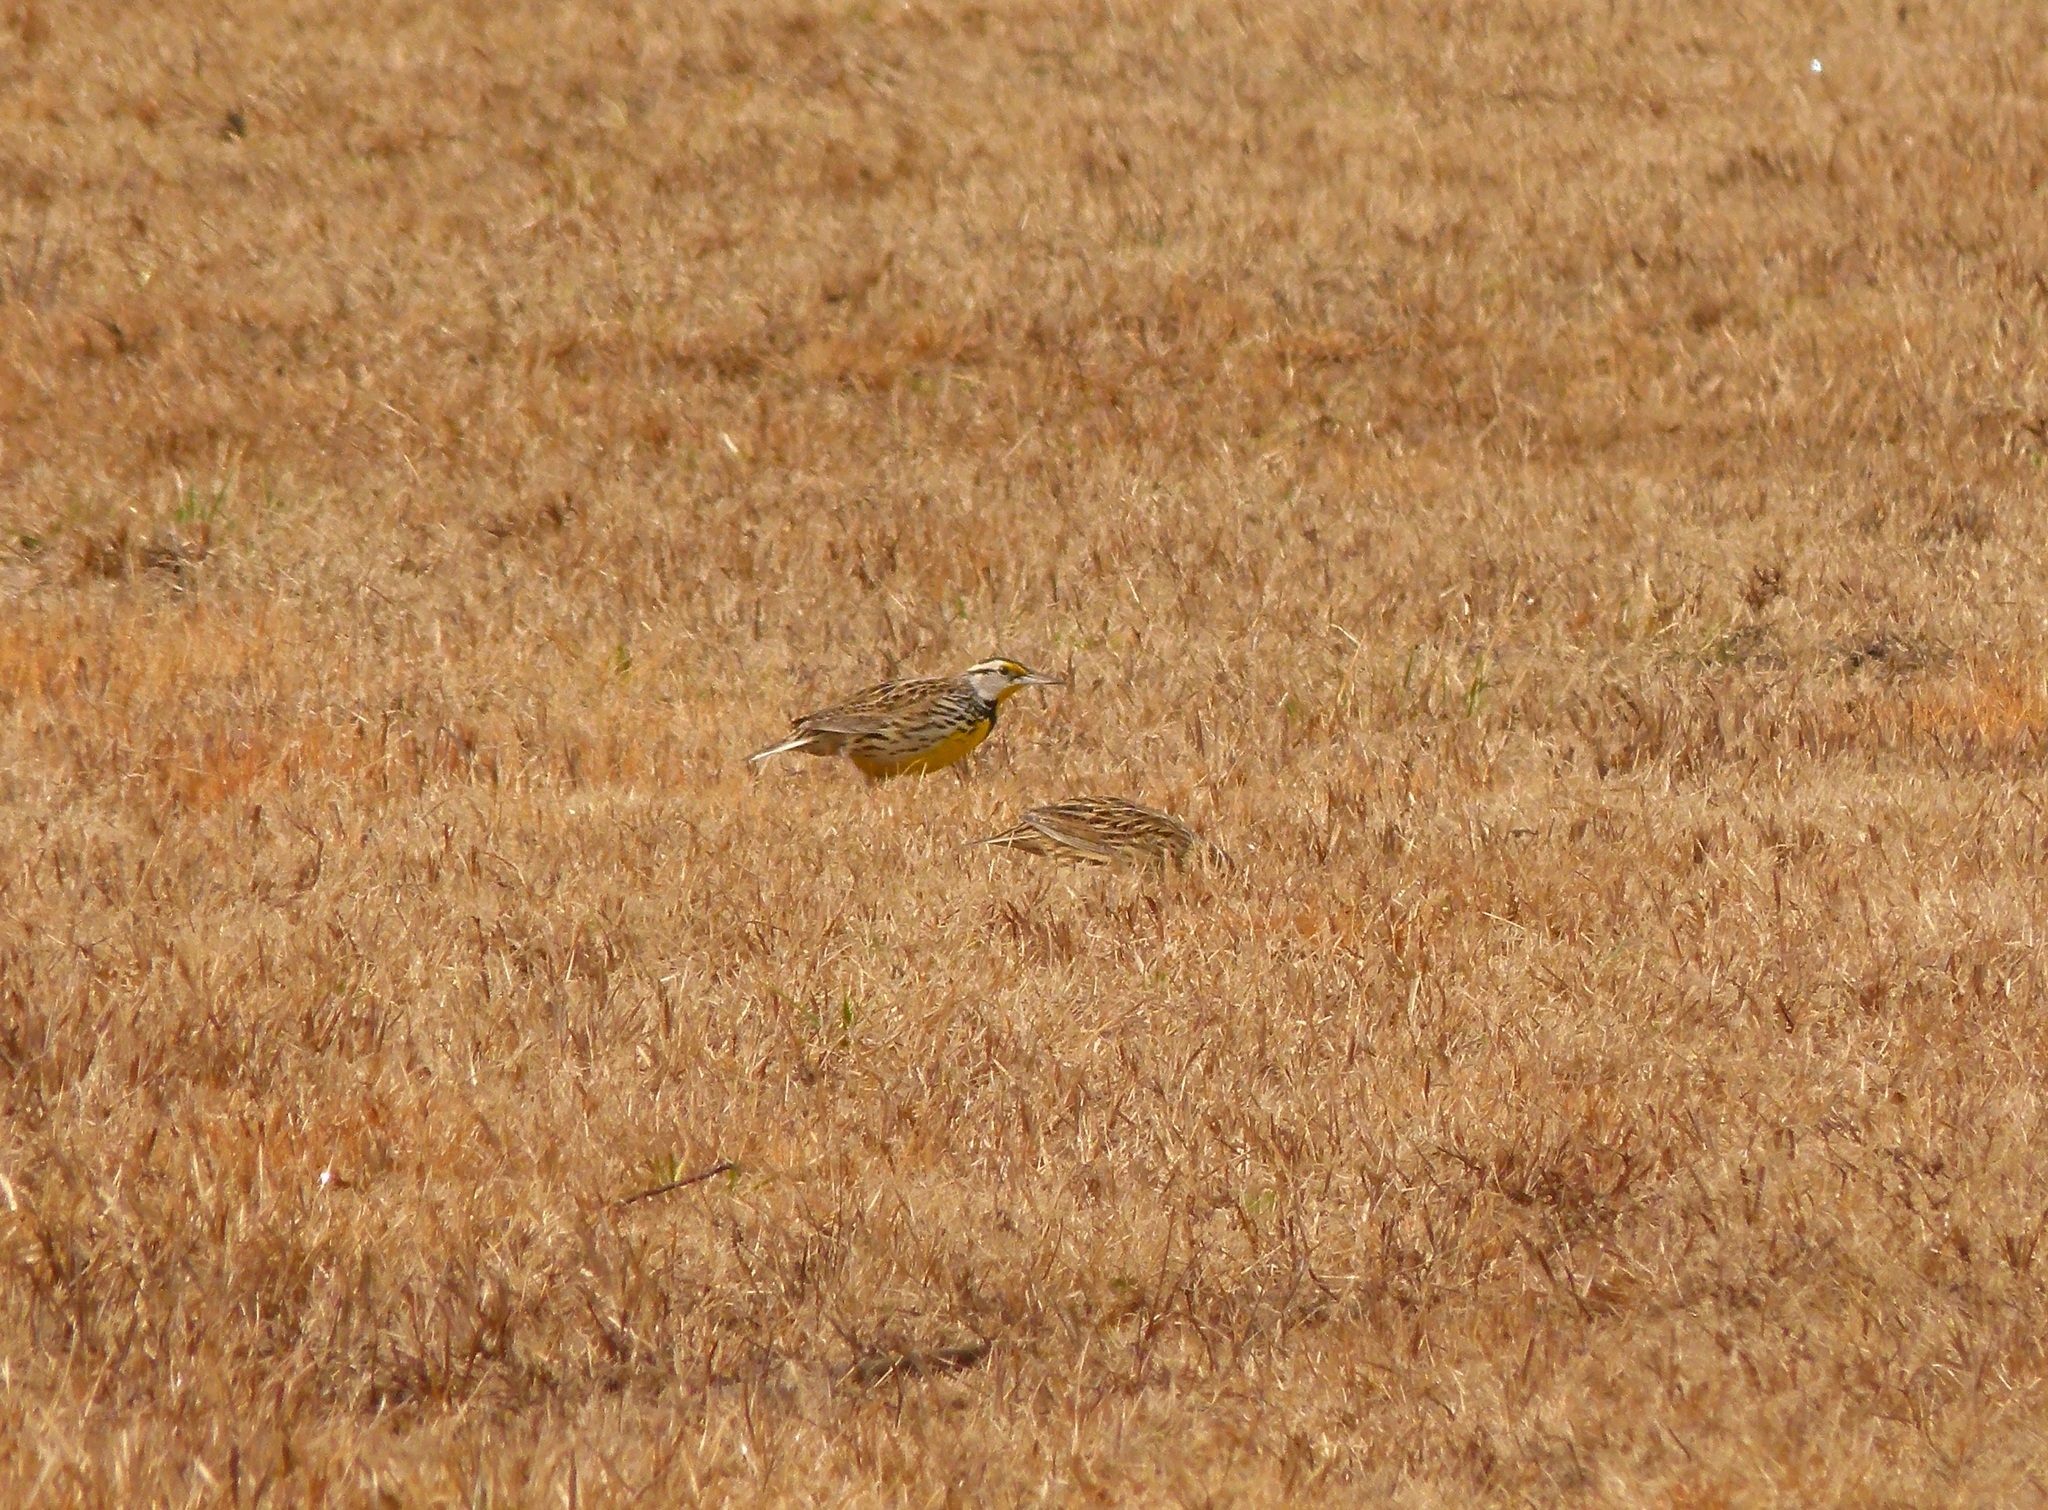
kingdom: Animalia
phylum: Chordata
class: Aves
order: Passeriformes
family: Icteridae
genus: Sturnella
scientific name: Sturnella magna
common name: Eastern meadowlark
